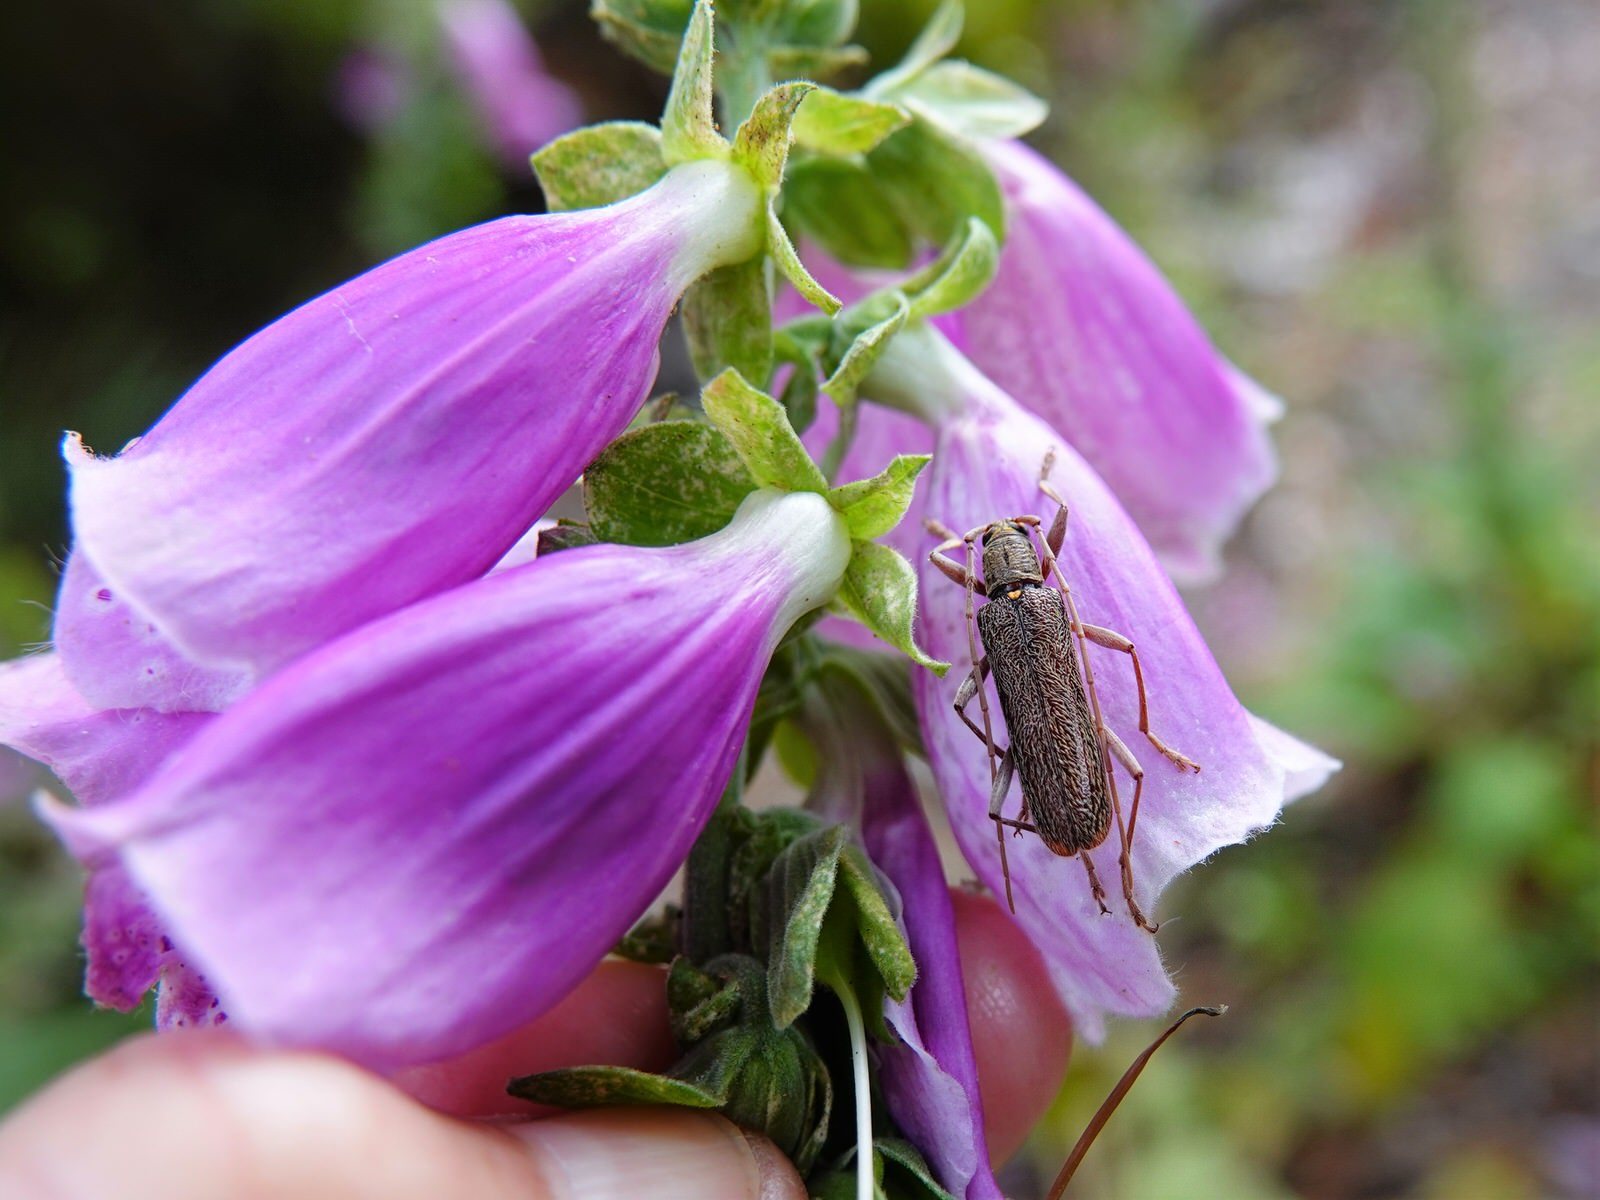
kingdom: Animalia
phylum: Arthropoda
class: Insecta
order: Coleoptera
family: Cerambycidae
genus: Oemona
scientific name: Oemona hirta
